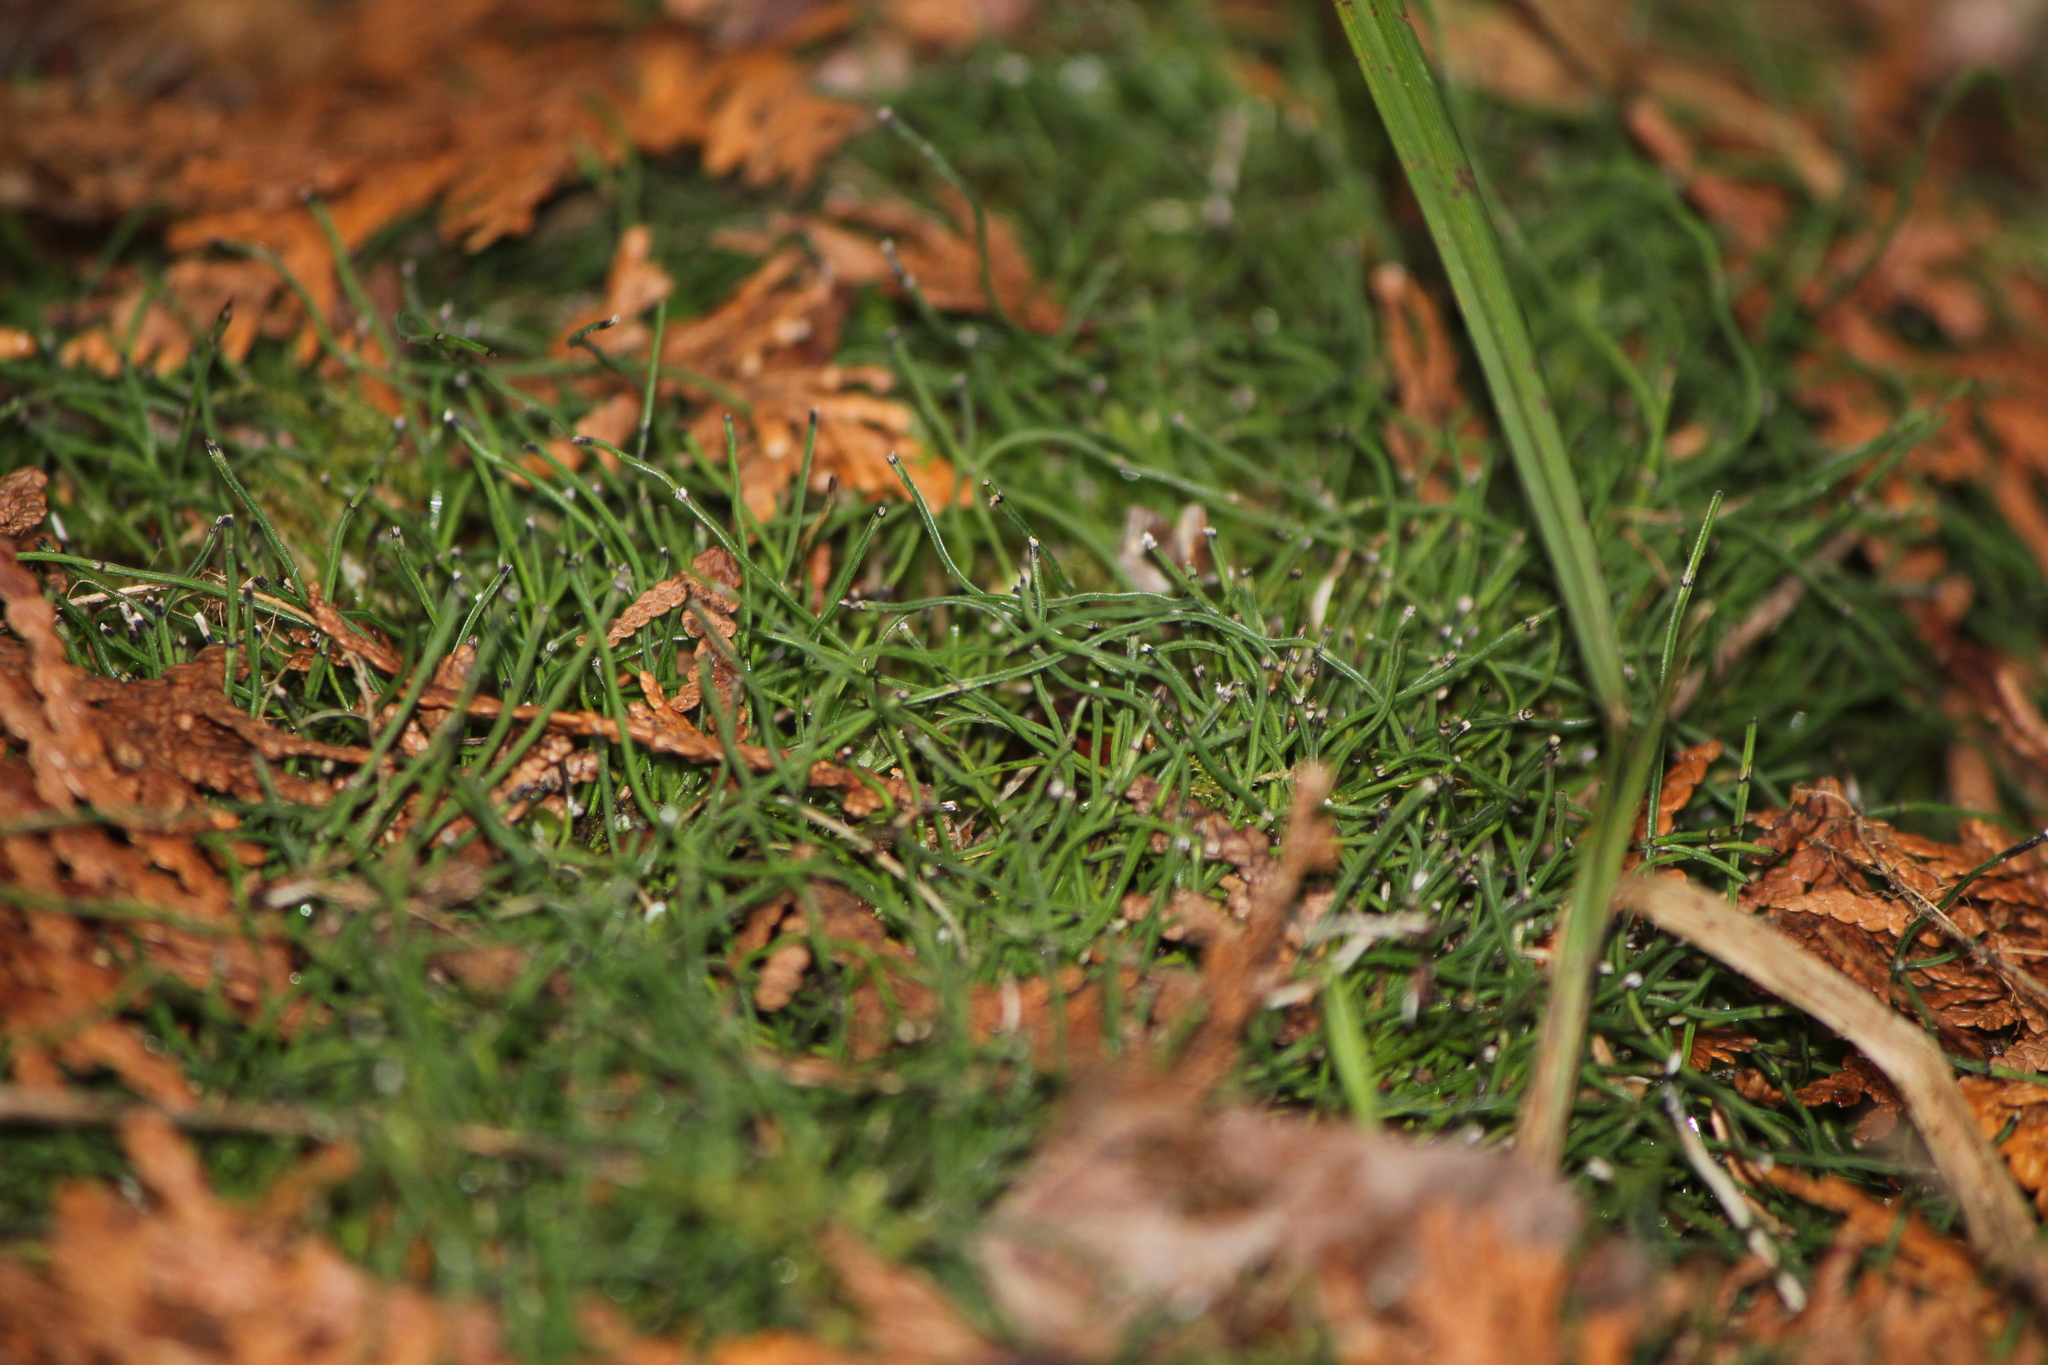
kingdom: Plantae
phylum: Tracheophyta
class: Polypodiopsida
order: Equisetales
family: Equisetaceae
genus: Equisetum
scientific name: Equisetum scirpoides
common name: Delicate horsetail
